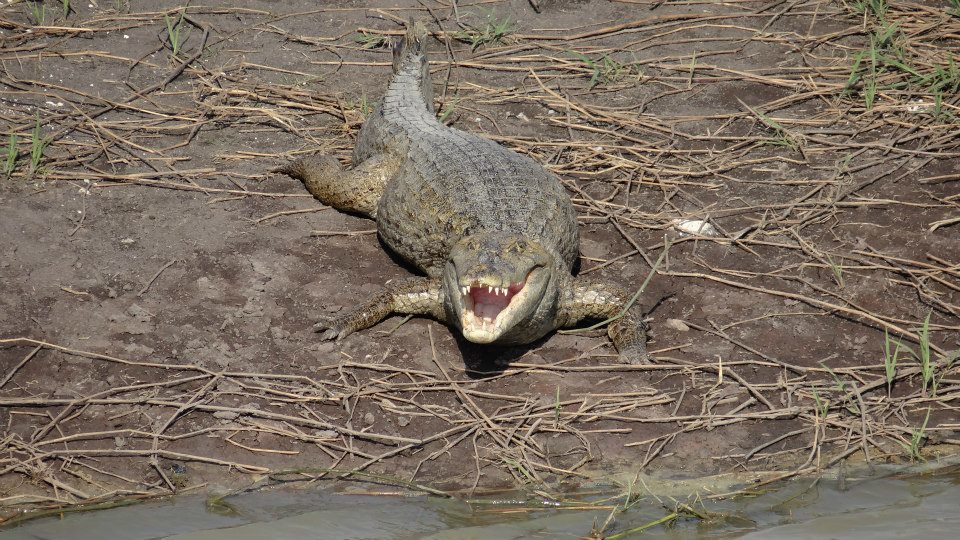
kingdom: Animalia
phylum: Chordata
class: Crocodylia
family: Alligatoridae
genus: Caiman
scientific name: Caiman crocodilus
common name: Common caiman
